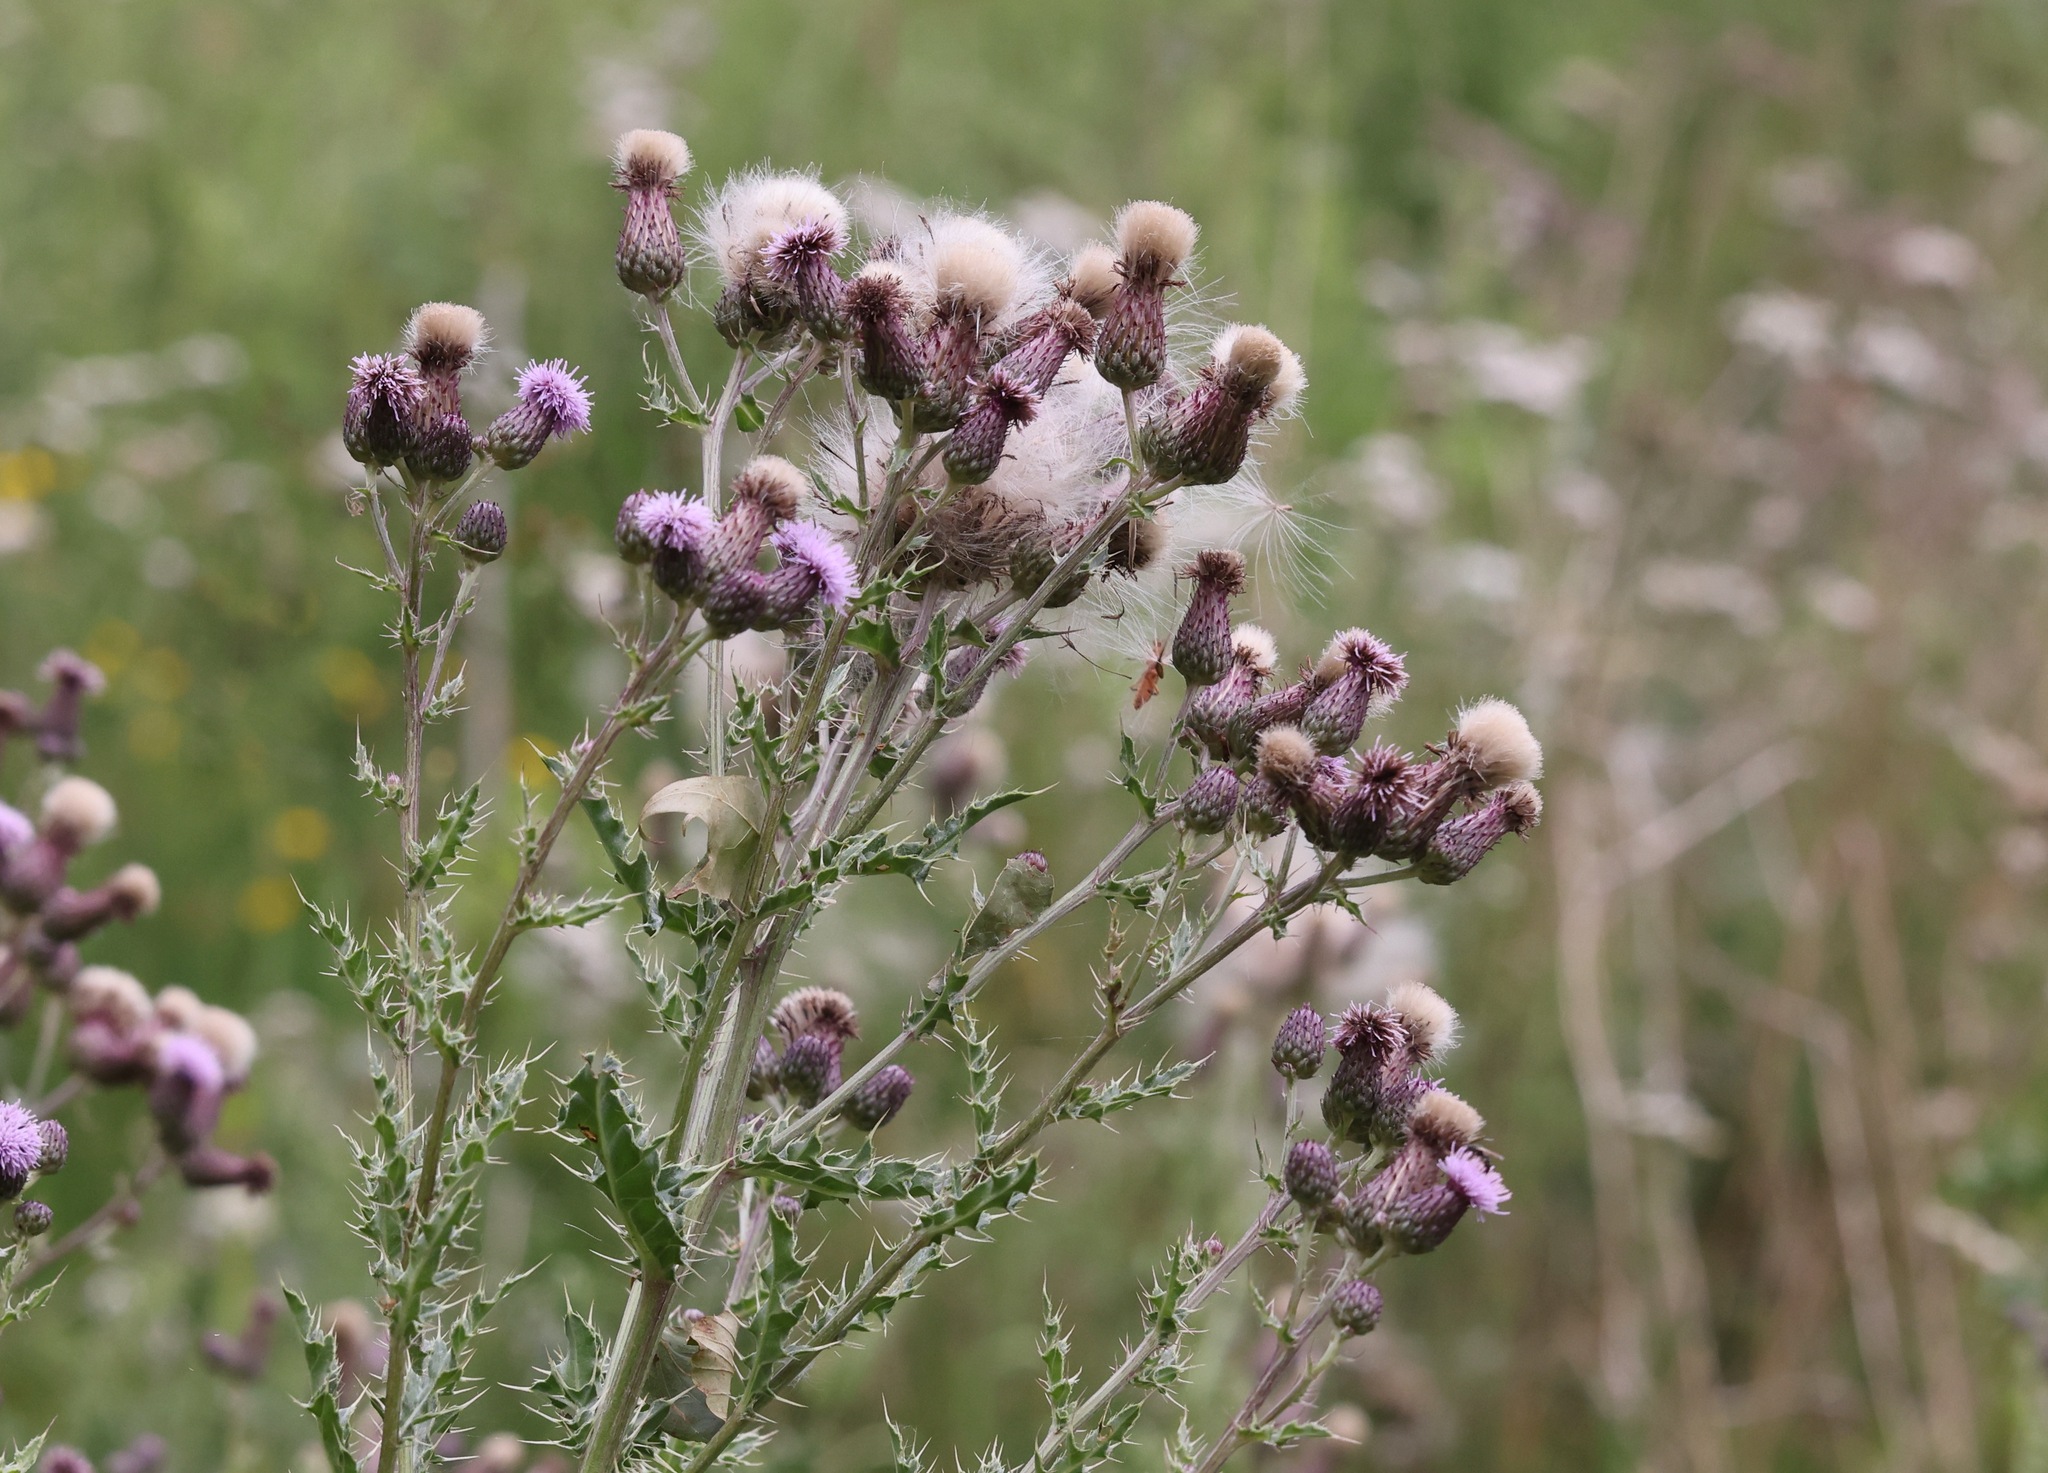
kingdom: Plantae
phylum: Tracheophyta
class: Magnoliopsida
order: Asterales
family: Asteraceae
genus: Cirsium
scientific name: Cirsium arvense
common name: Creeping thistle
